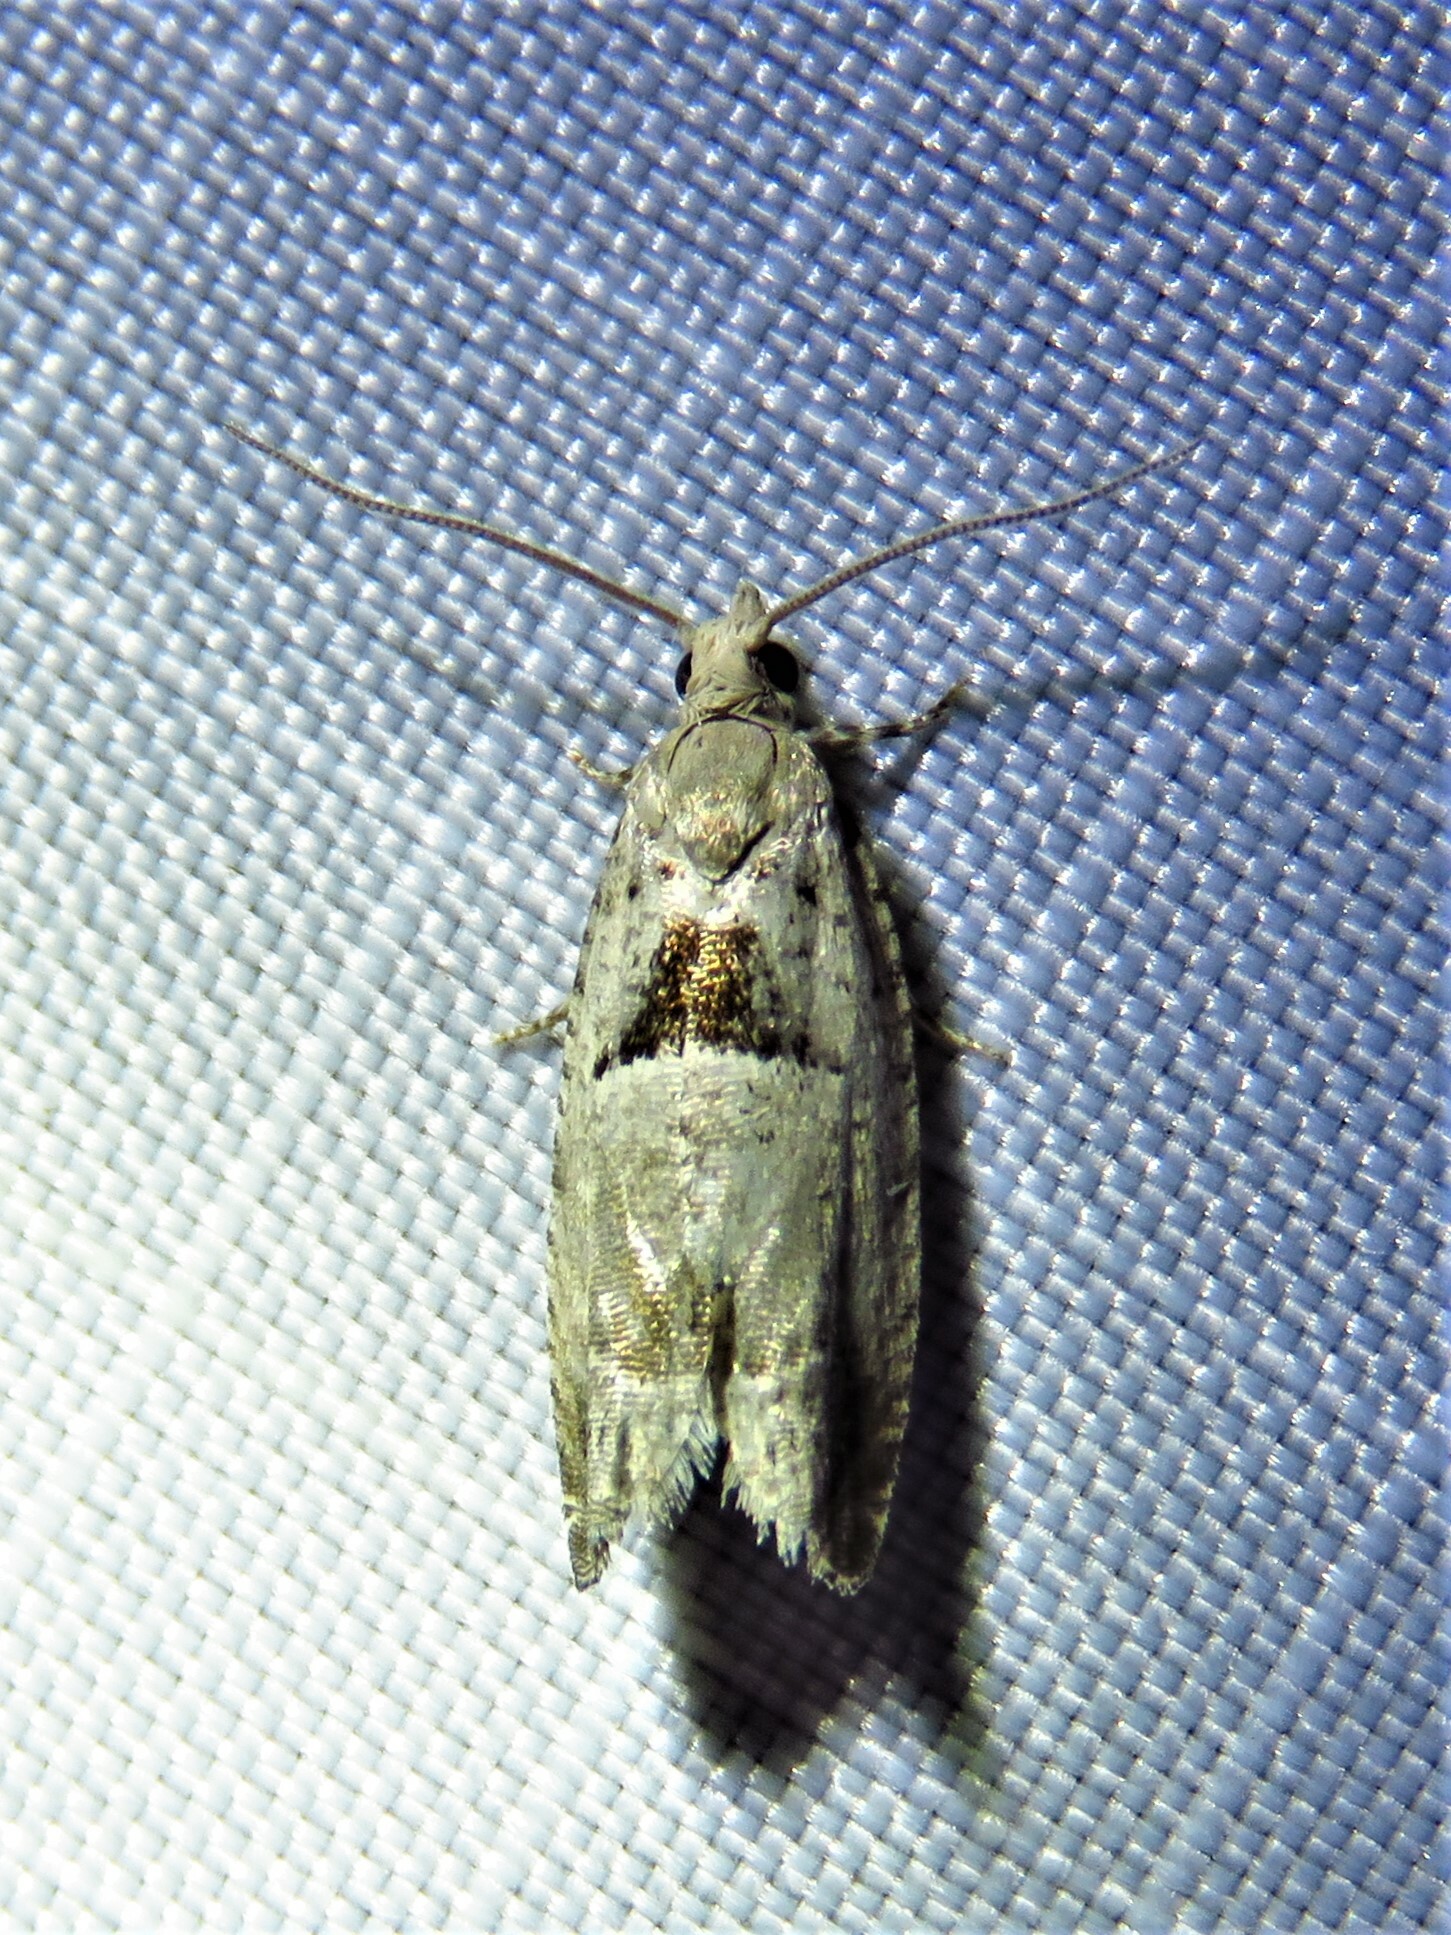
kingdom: Animalia
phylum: Arthropoda
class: Insecta
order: Lepidoptera
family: Tortricidae
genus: Epinotia
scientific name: Epinotia ramella
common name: Small birch bell
